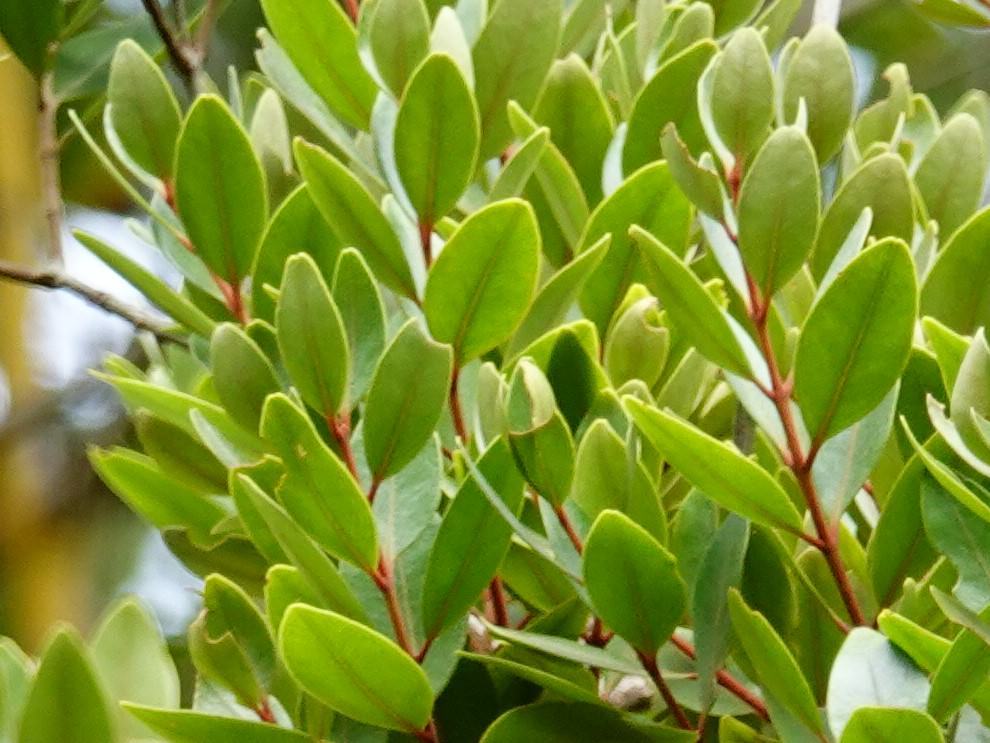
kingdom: Plantae
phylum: Tracheophyta
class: Magnoliopsida
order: Myrtales
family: Myrtaceae
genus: Metrosideros
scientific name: Metrosideros robusta
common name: Northern rata
